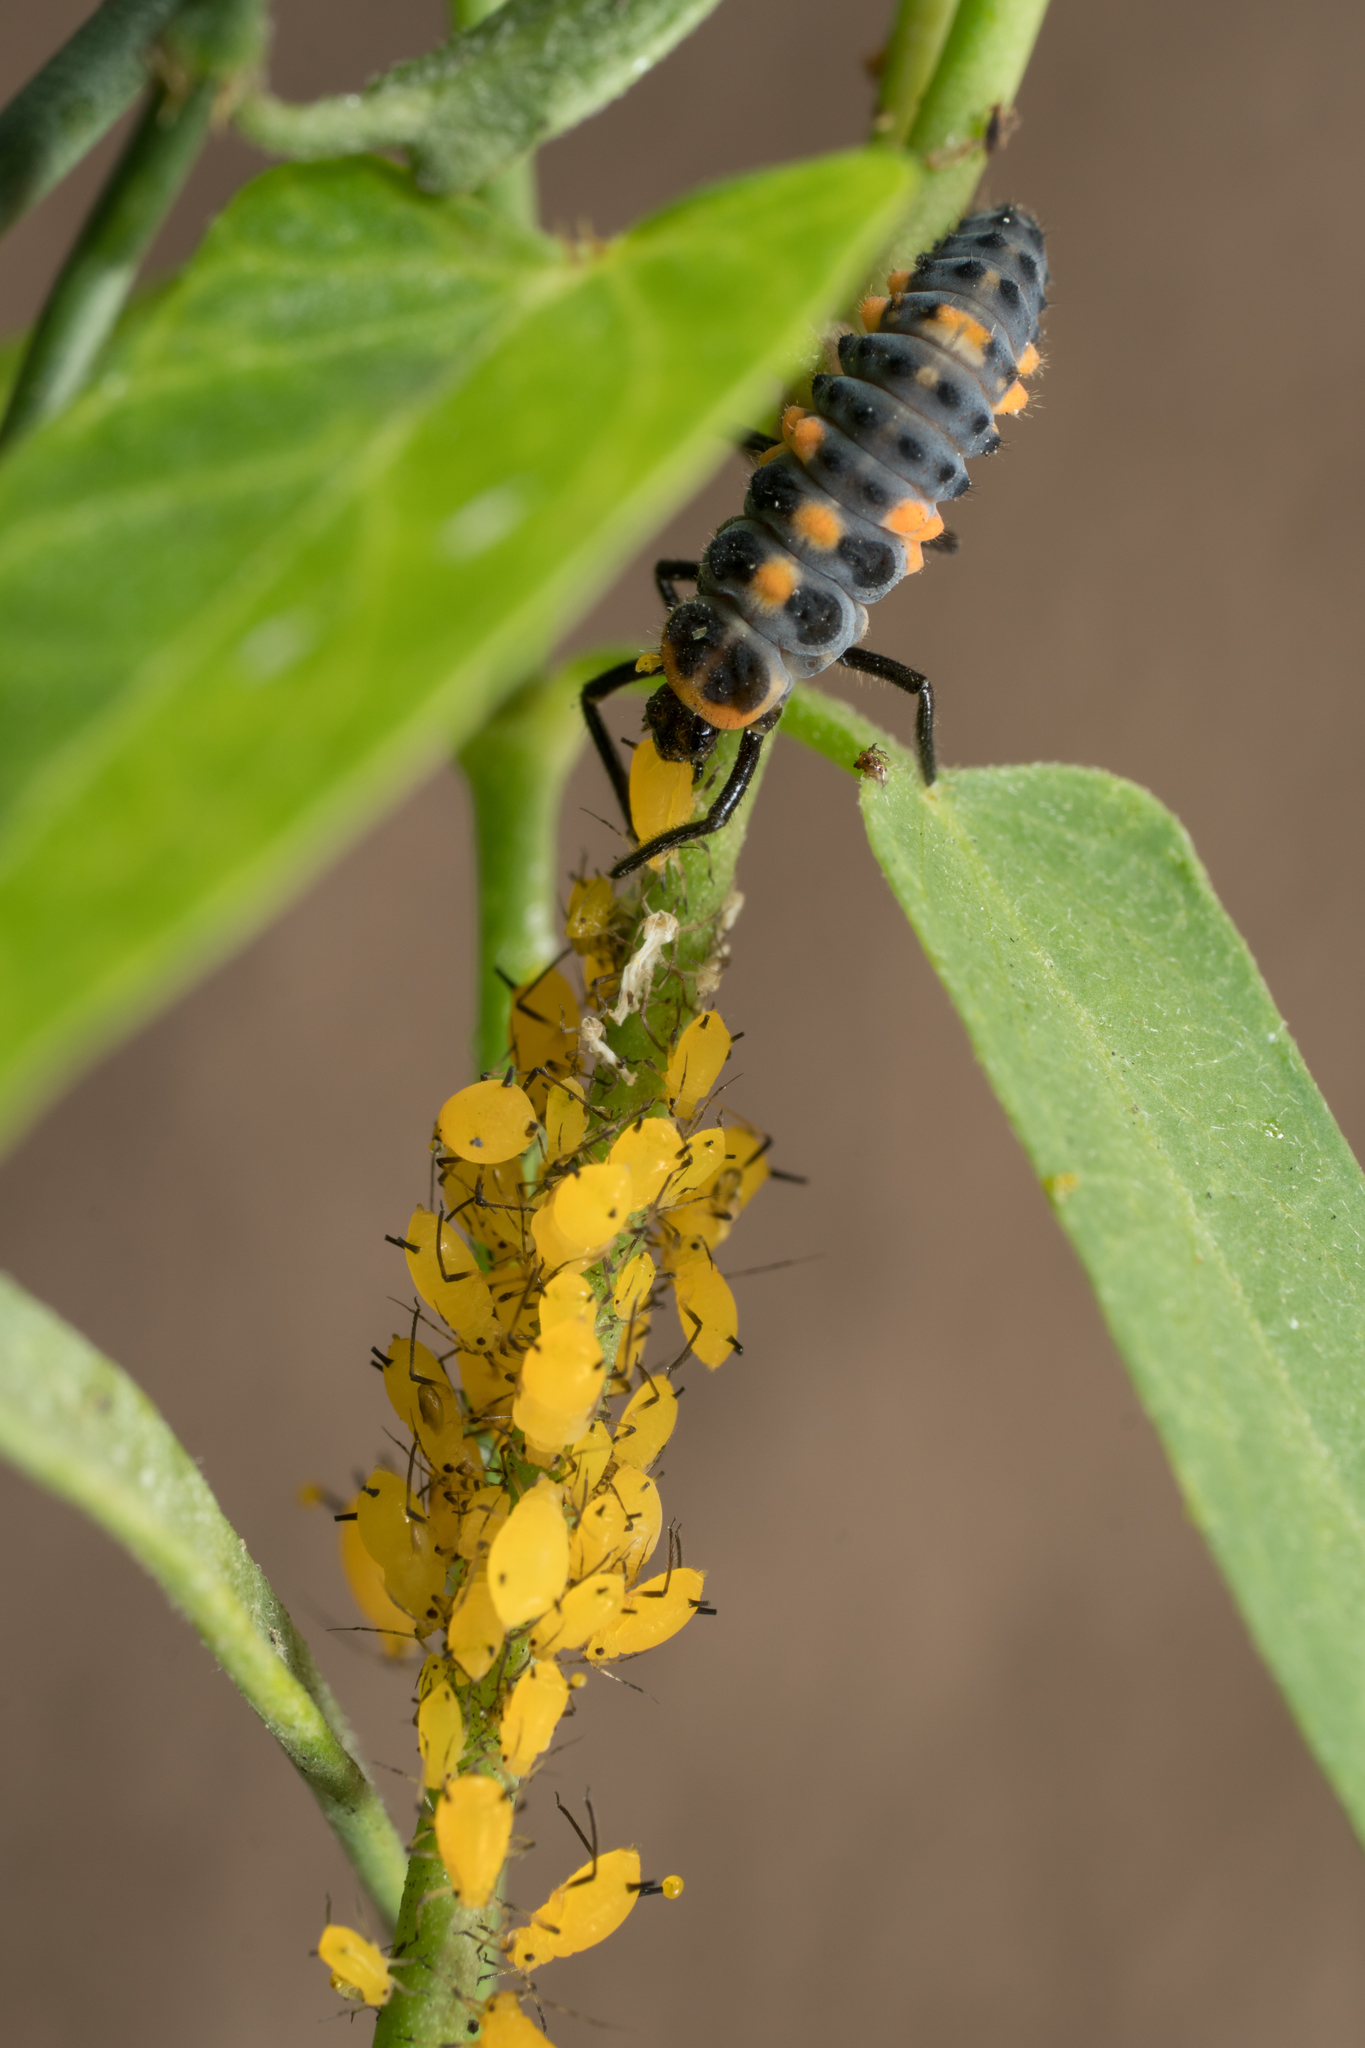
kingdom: Animalia
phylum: Arthropoda
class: Insecta
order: Hemiptera
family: Aphididae
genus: Aphis
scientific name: Aphis nerii
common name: Oleander aphid
